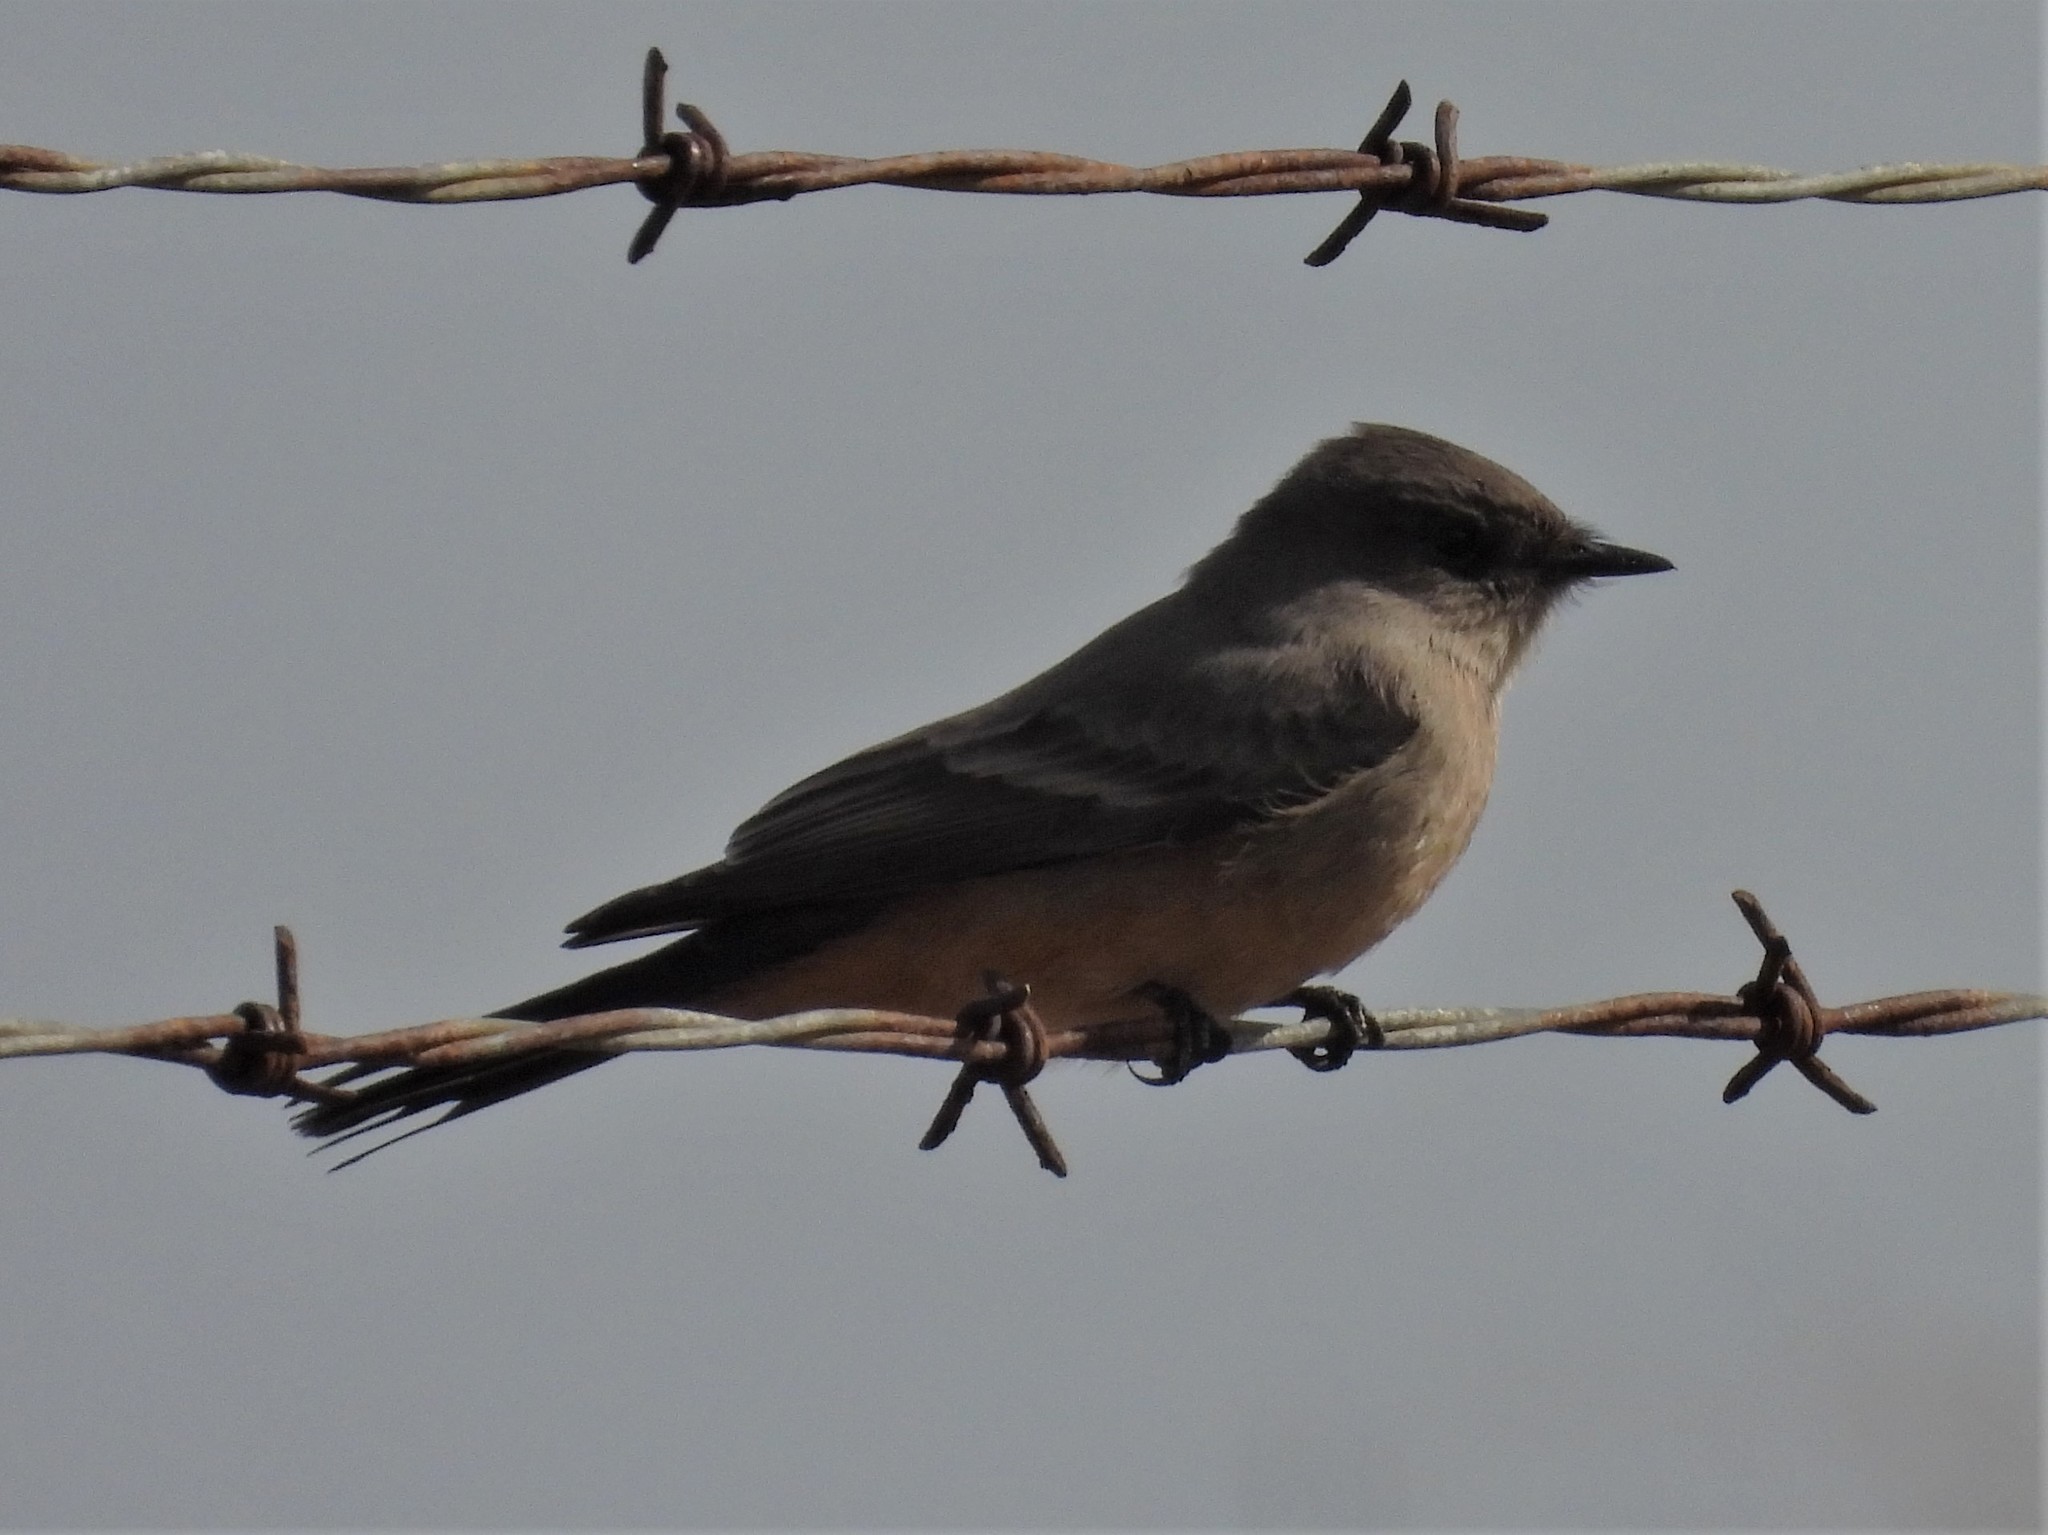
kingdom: Animalia
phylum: Chordata
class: Aves
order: Passeriformes
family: Tyrannidae
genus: Sayornis
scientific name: Sayornis saya
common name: Say's phoebe
